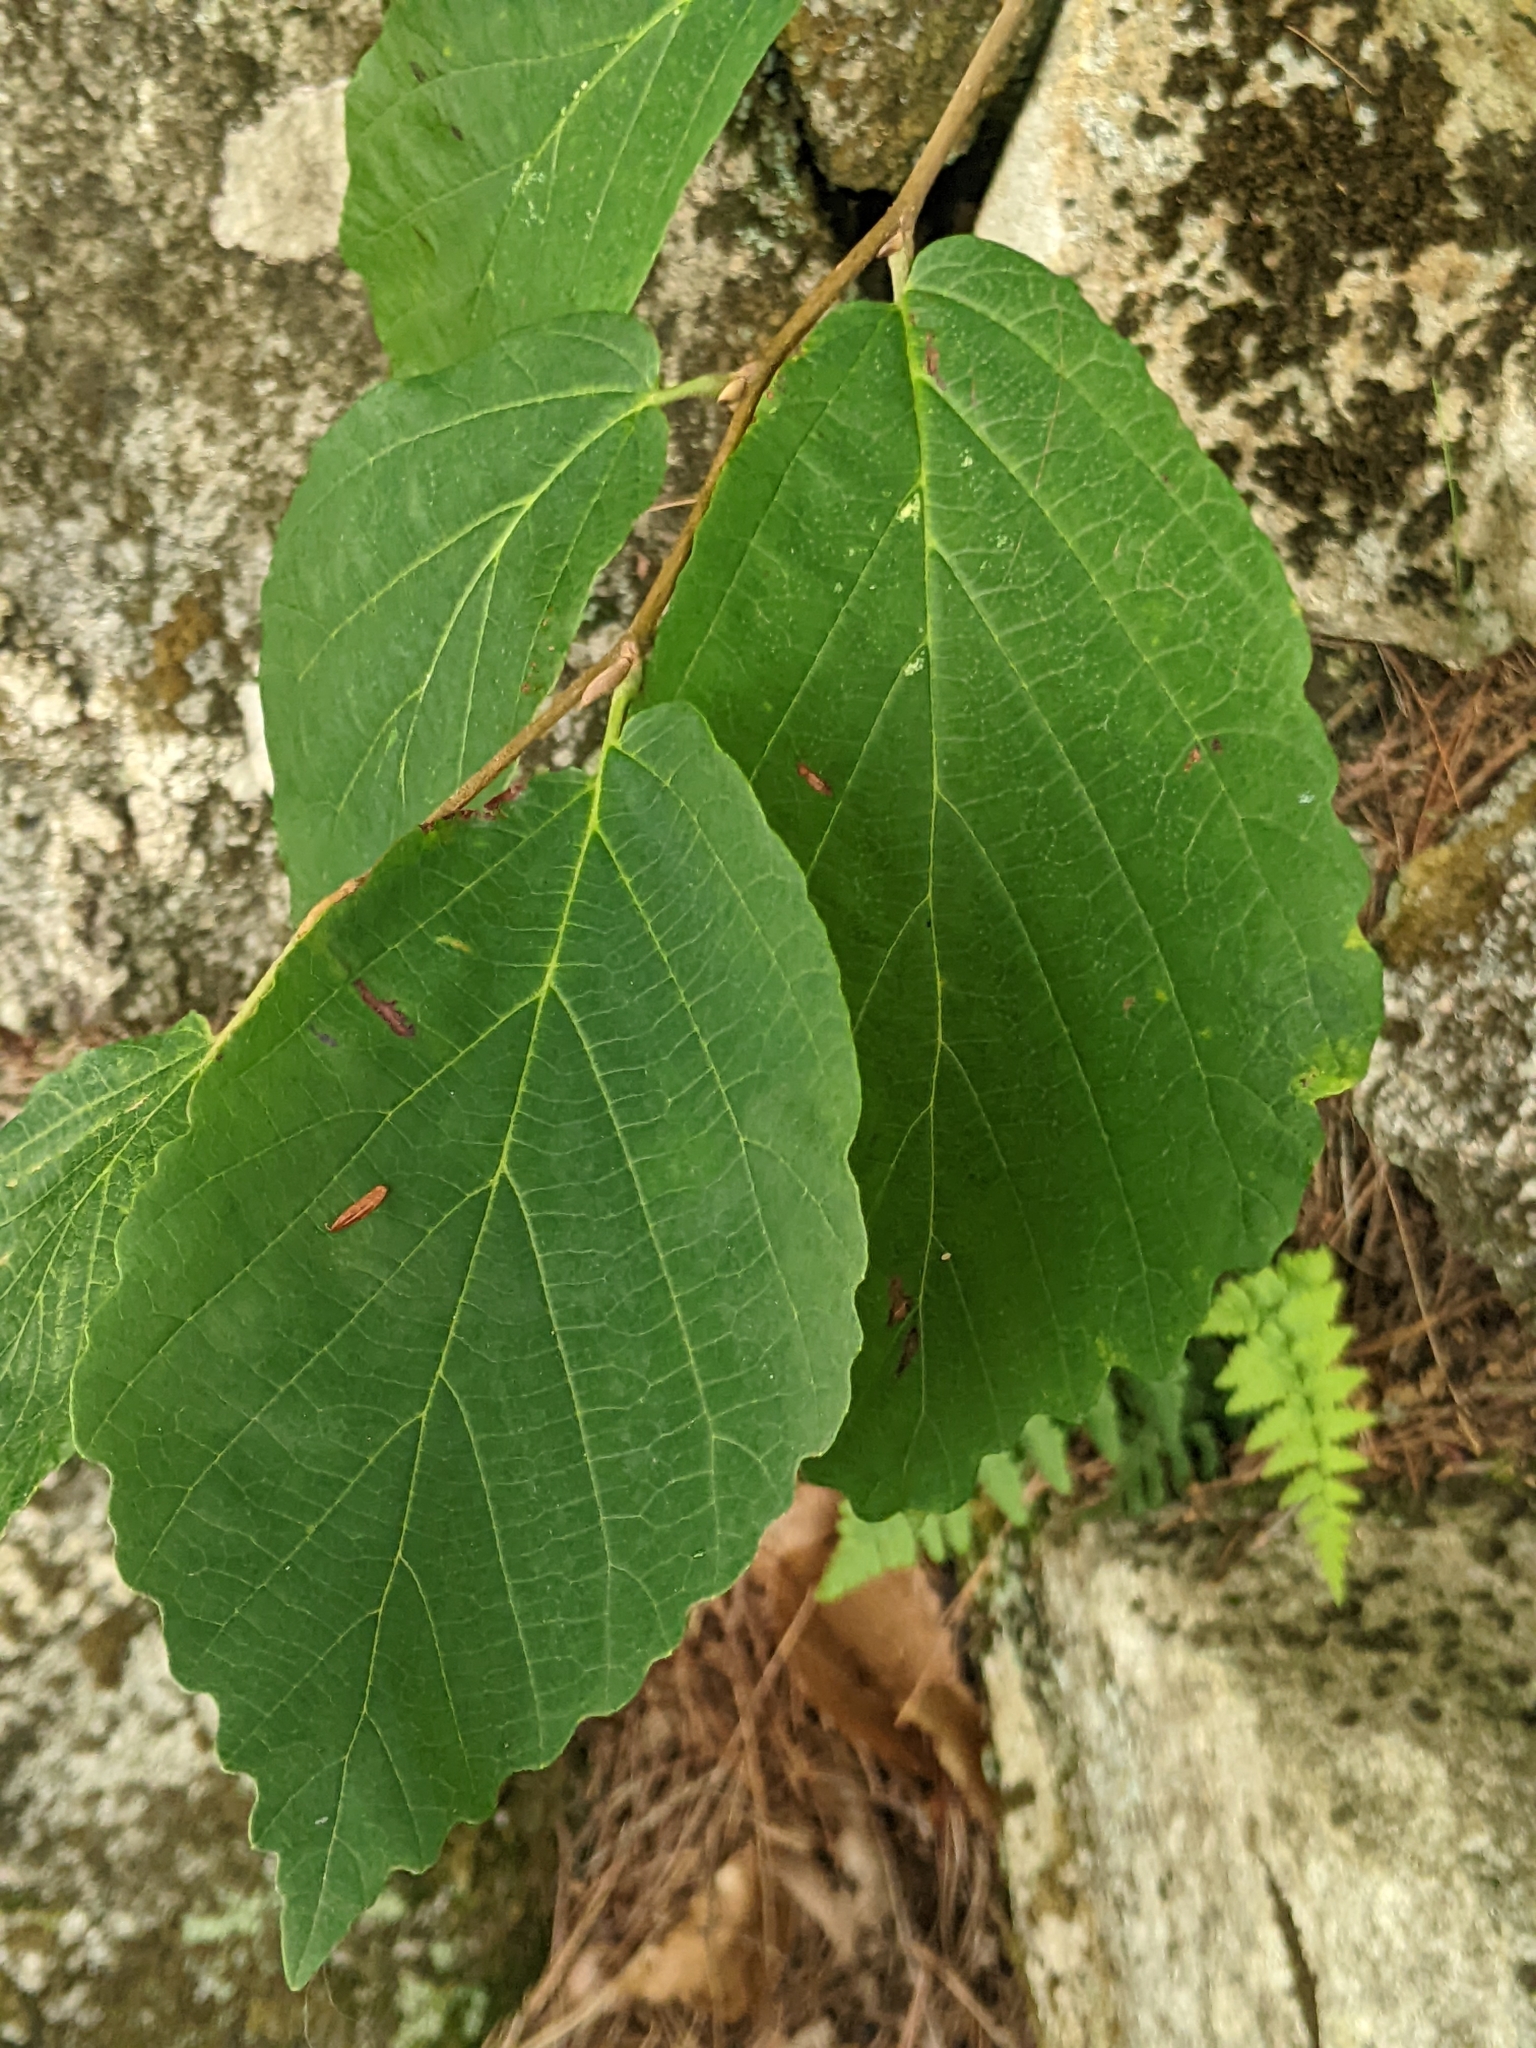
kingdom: Plantae
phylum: Tracheophyta
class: Magnoliopsida
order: Saxifragales
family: Hamamelidaceae
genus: Hamamelis
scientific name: Hamamelis virginiana
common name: Witch-hazel
